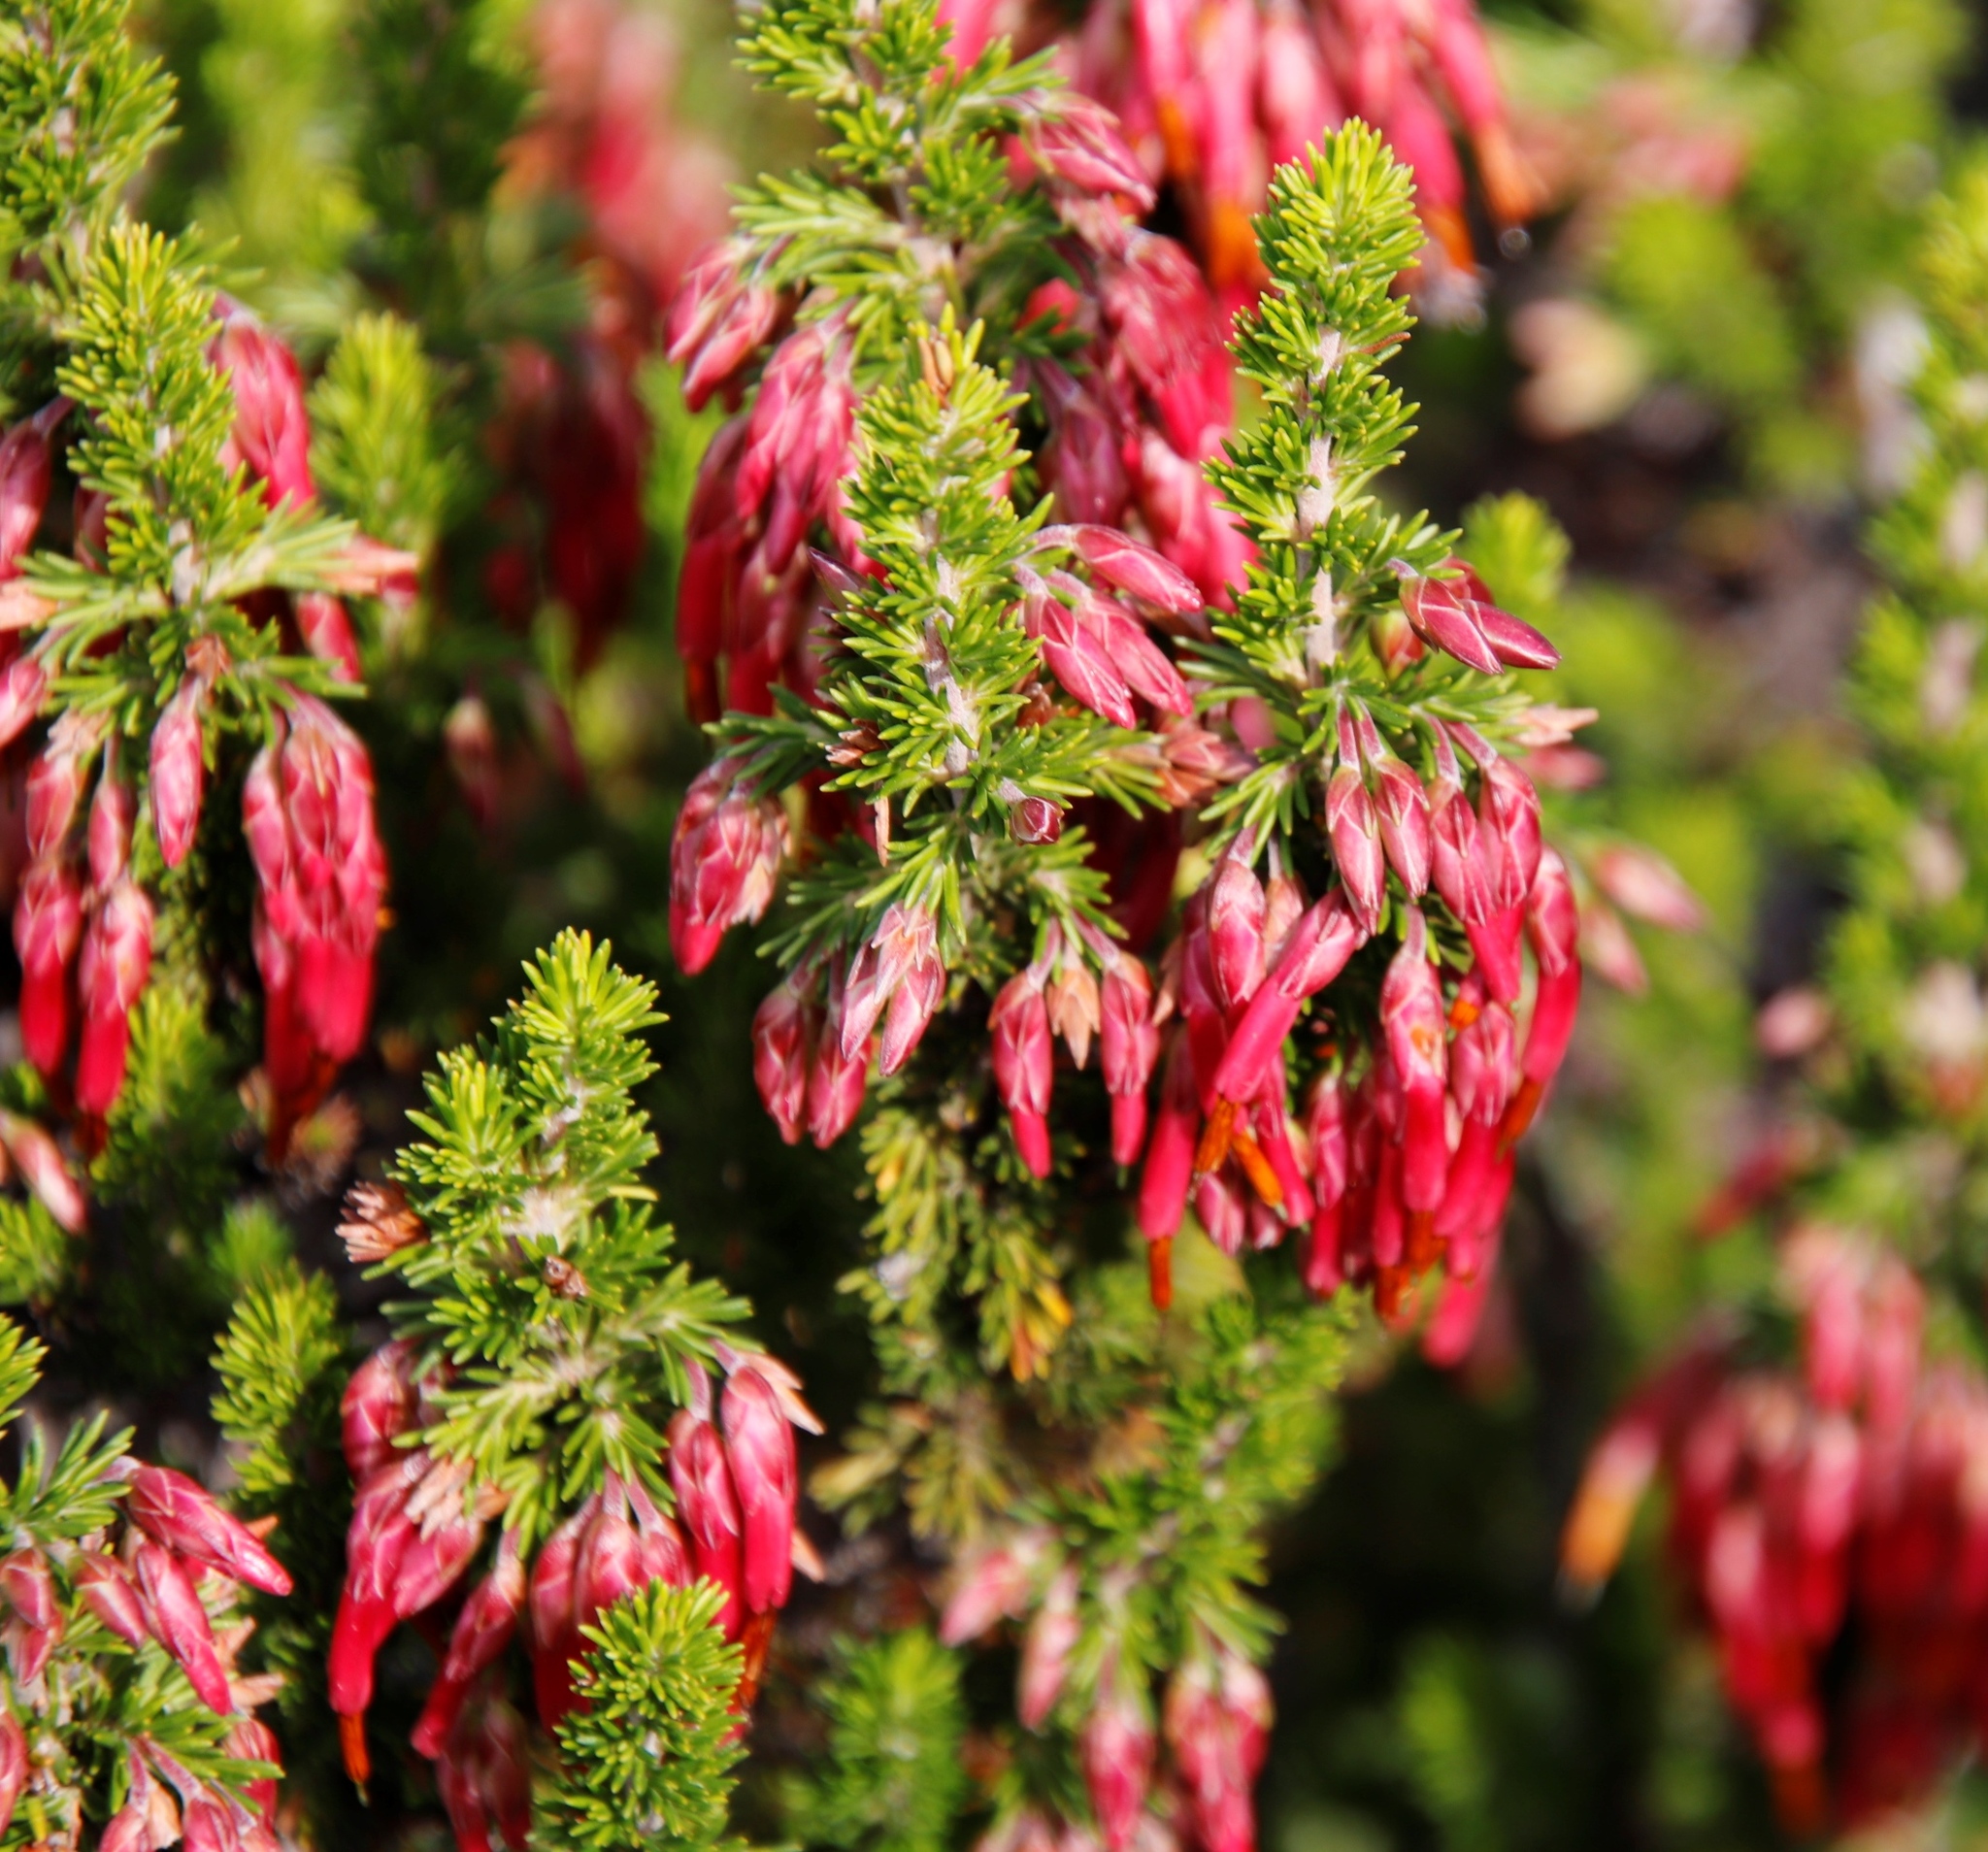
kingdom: Plantae
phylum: Tracheophyta
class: Magnoliopsida
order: Ericales
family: Ericaceae
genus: Erica
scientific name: Erica coccinea
